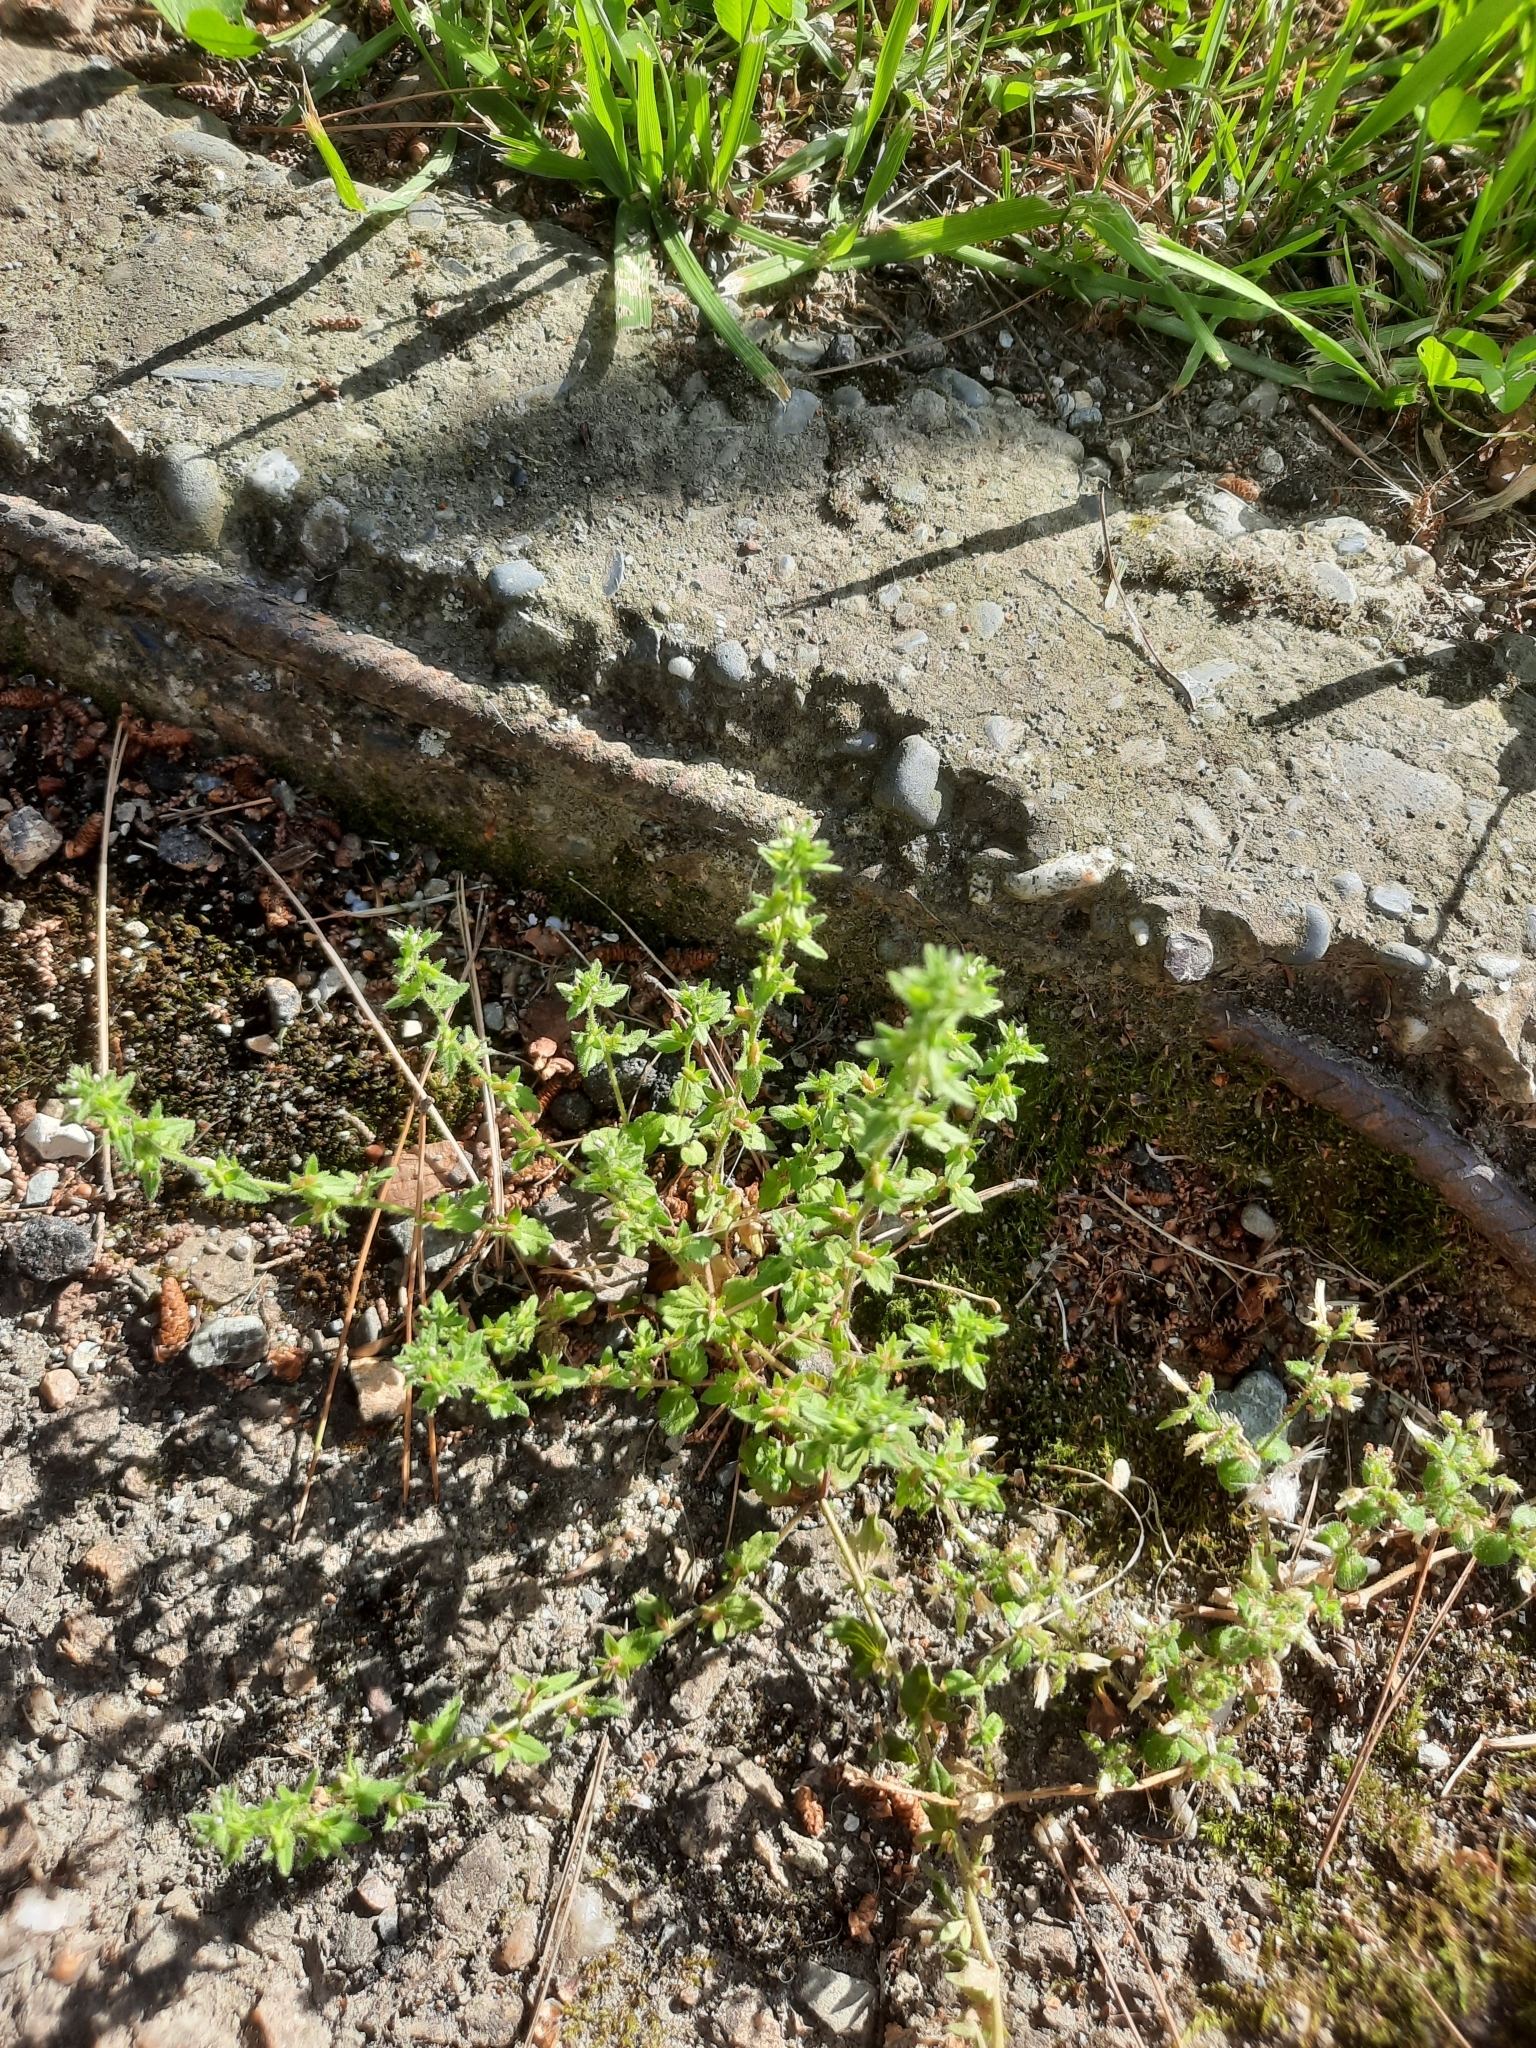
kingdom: Plantae
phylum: Tracheophyta
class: Magnoliopsida
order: Lamiales
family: Plantaginaceae
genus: Veronica
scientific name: Veronica arvensis
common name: Corn speedwell
